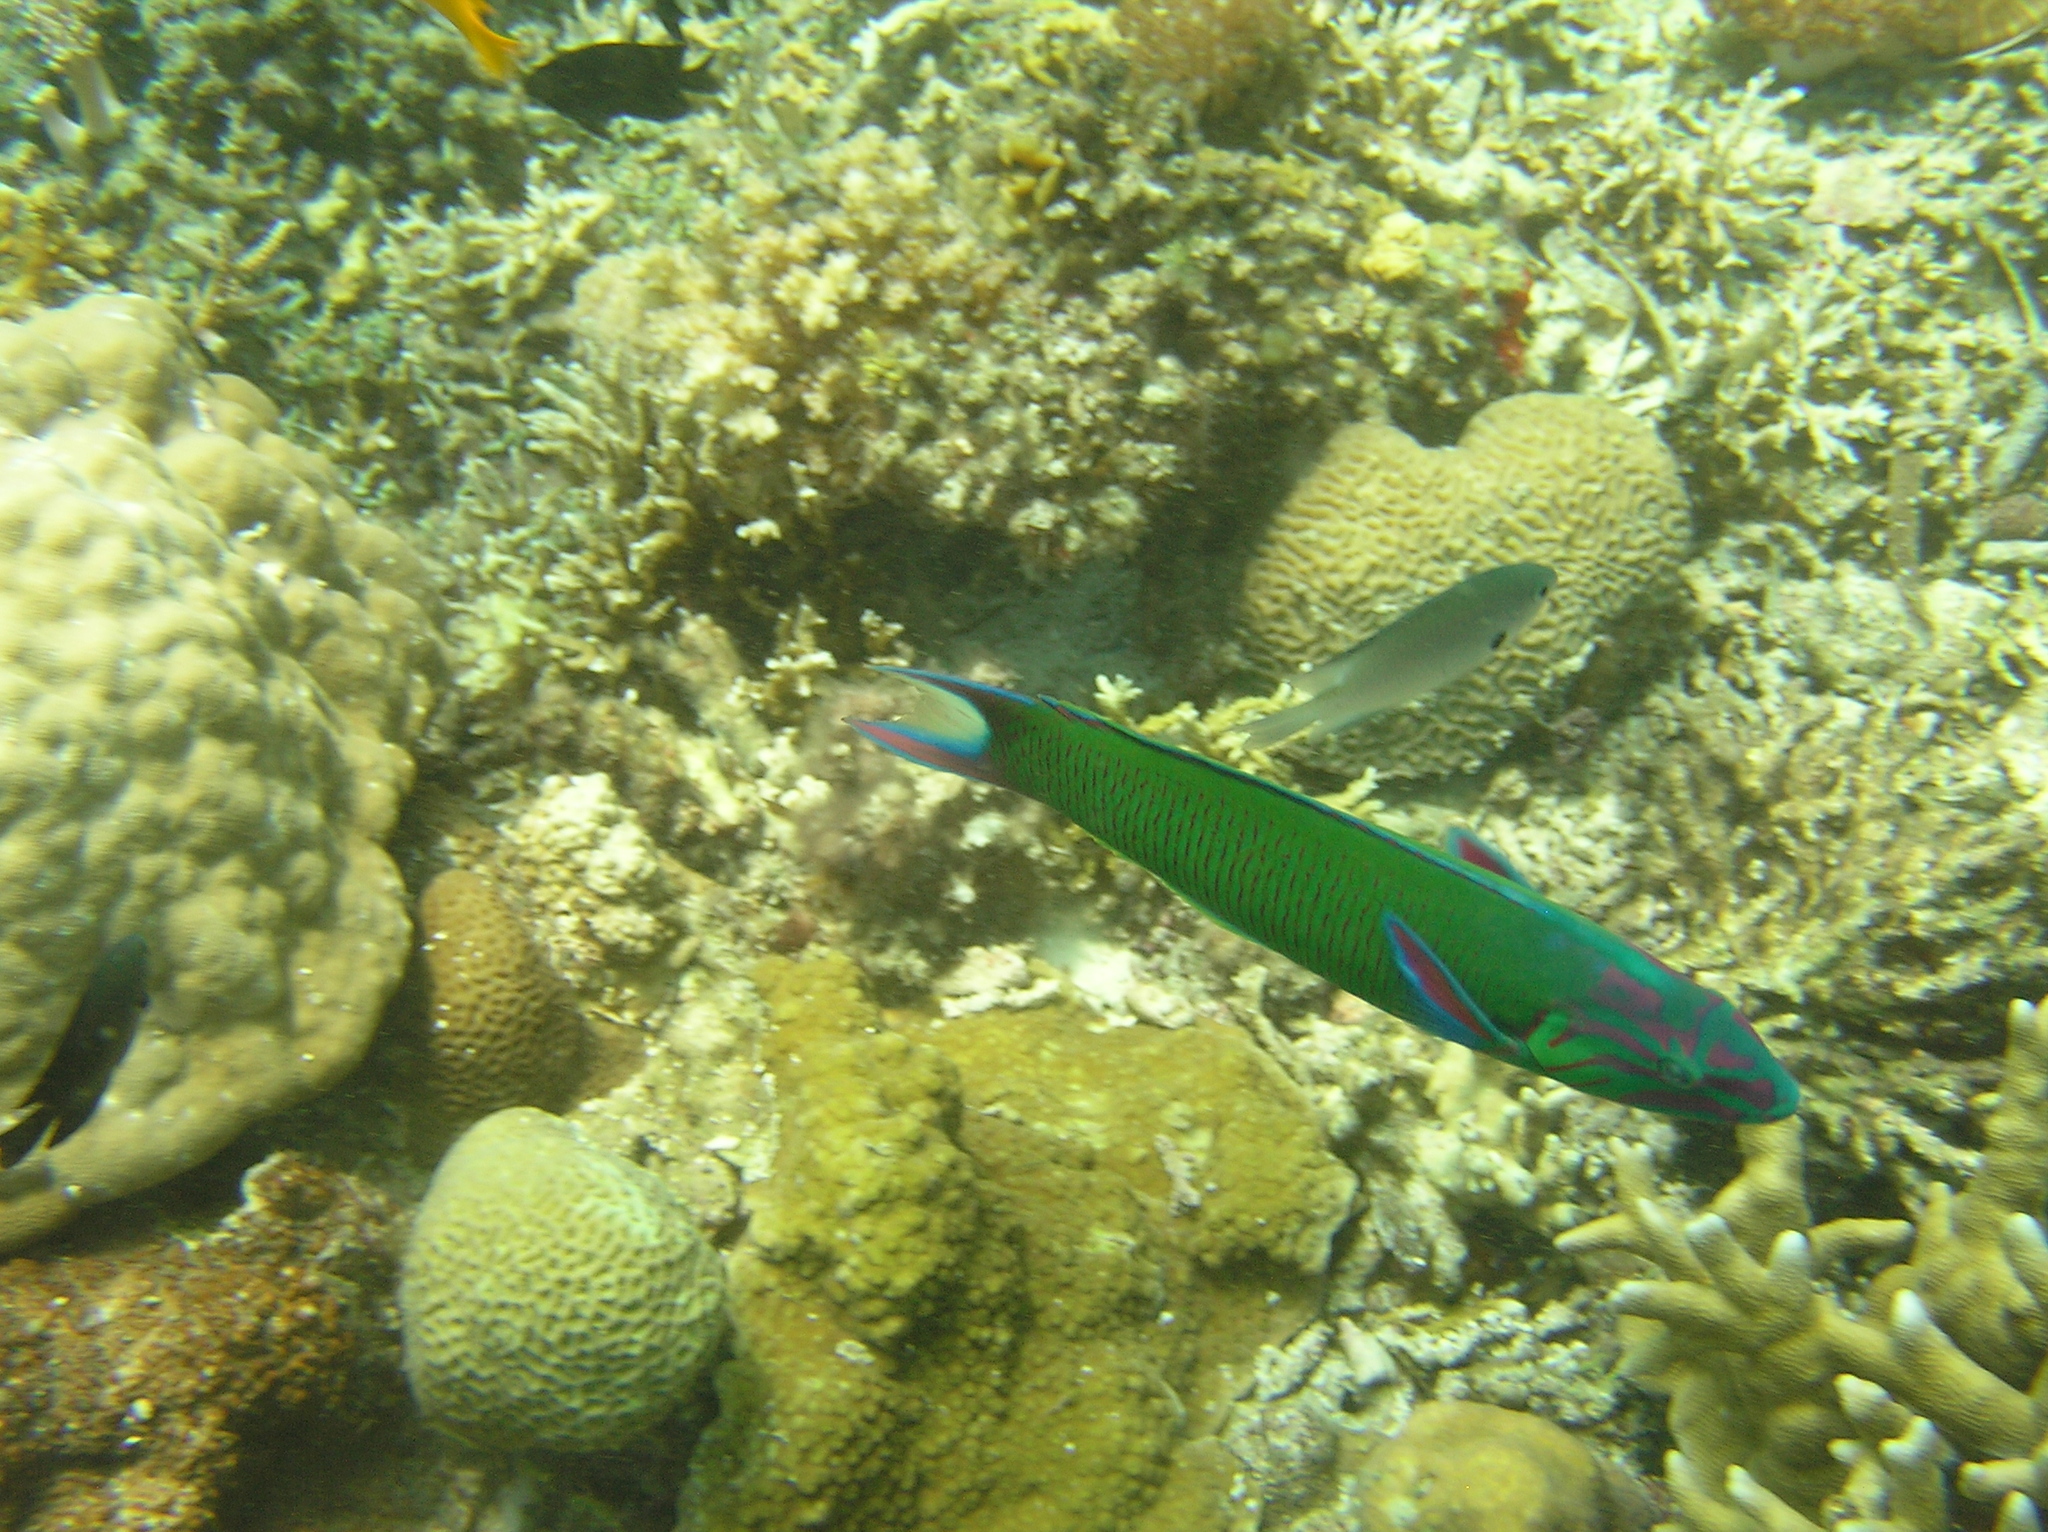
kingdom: Animalia
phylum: Chordata
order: Perciformes
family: Labridae
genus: Thalassoma
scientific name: Thalassoma lunare
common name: Blue wrasse
